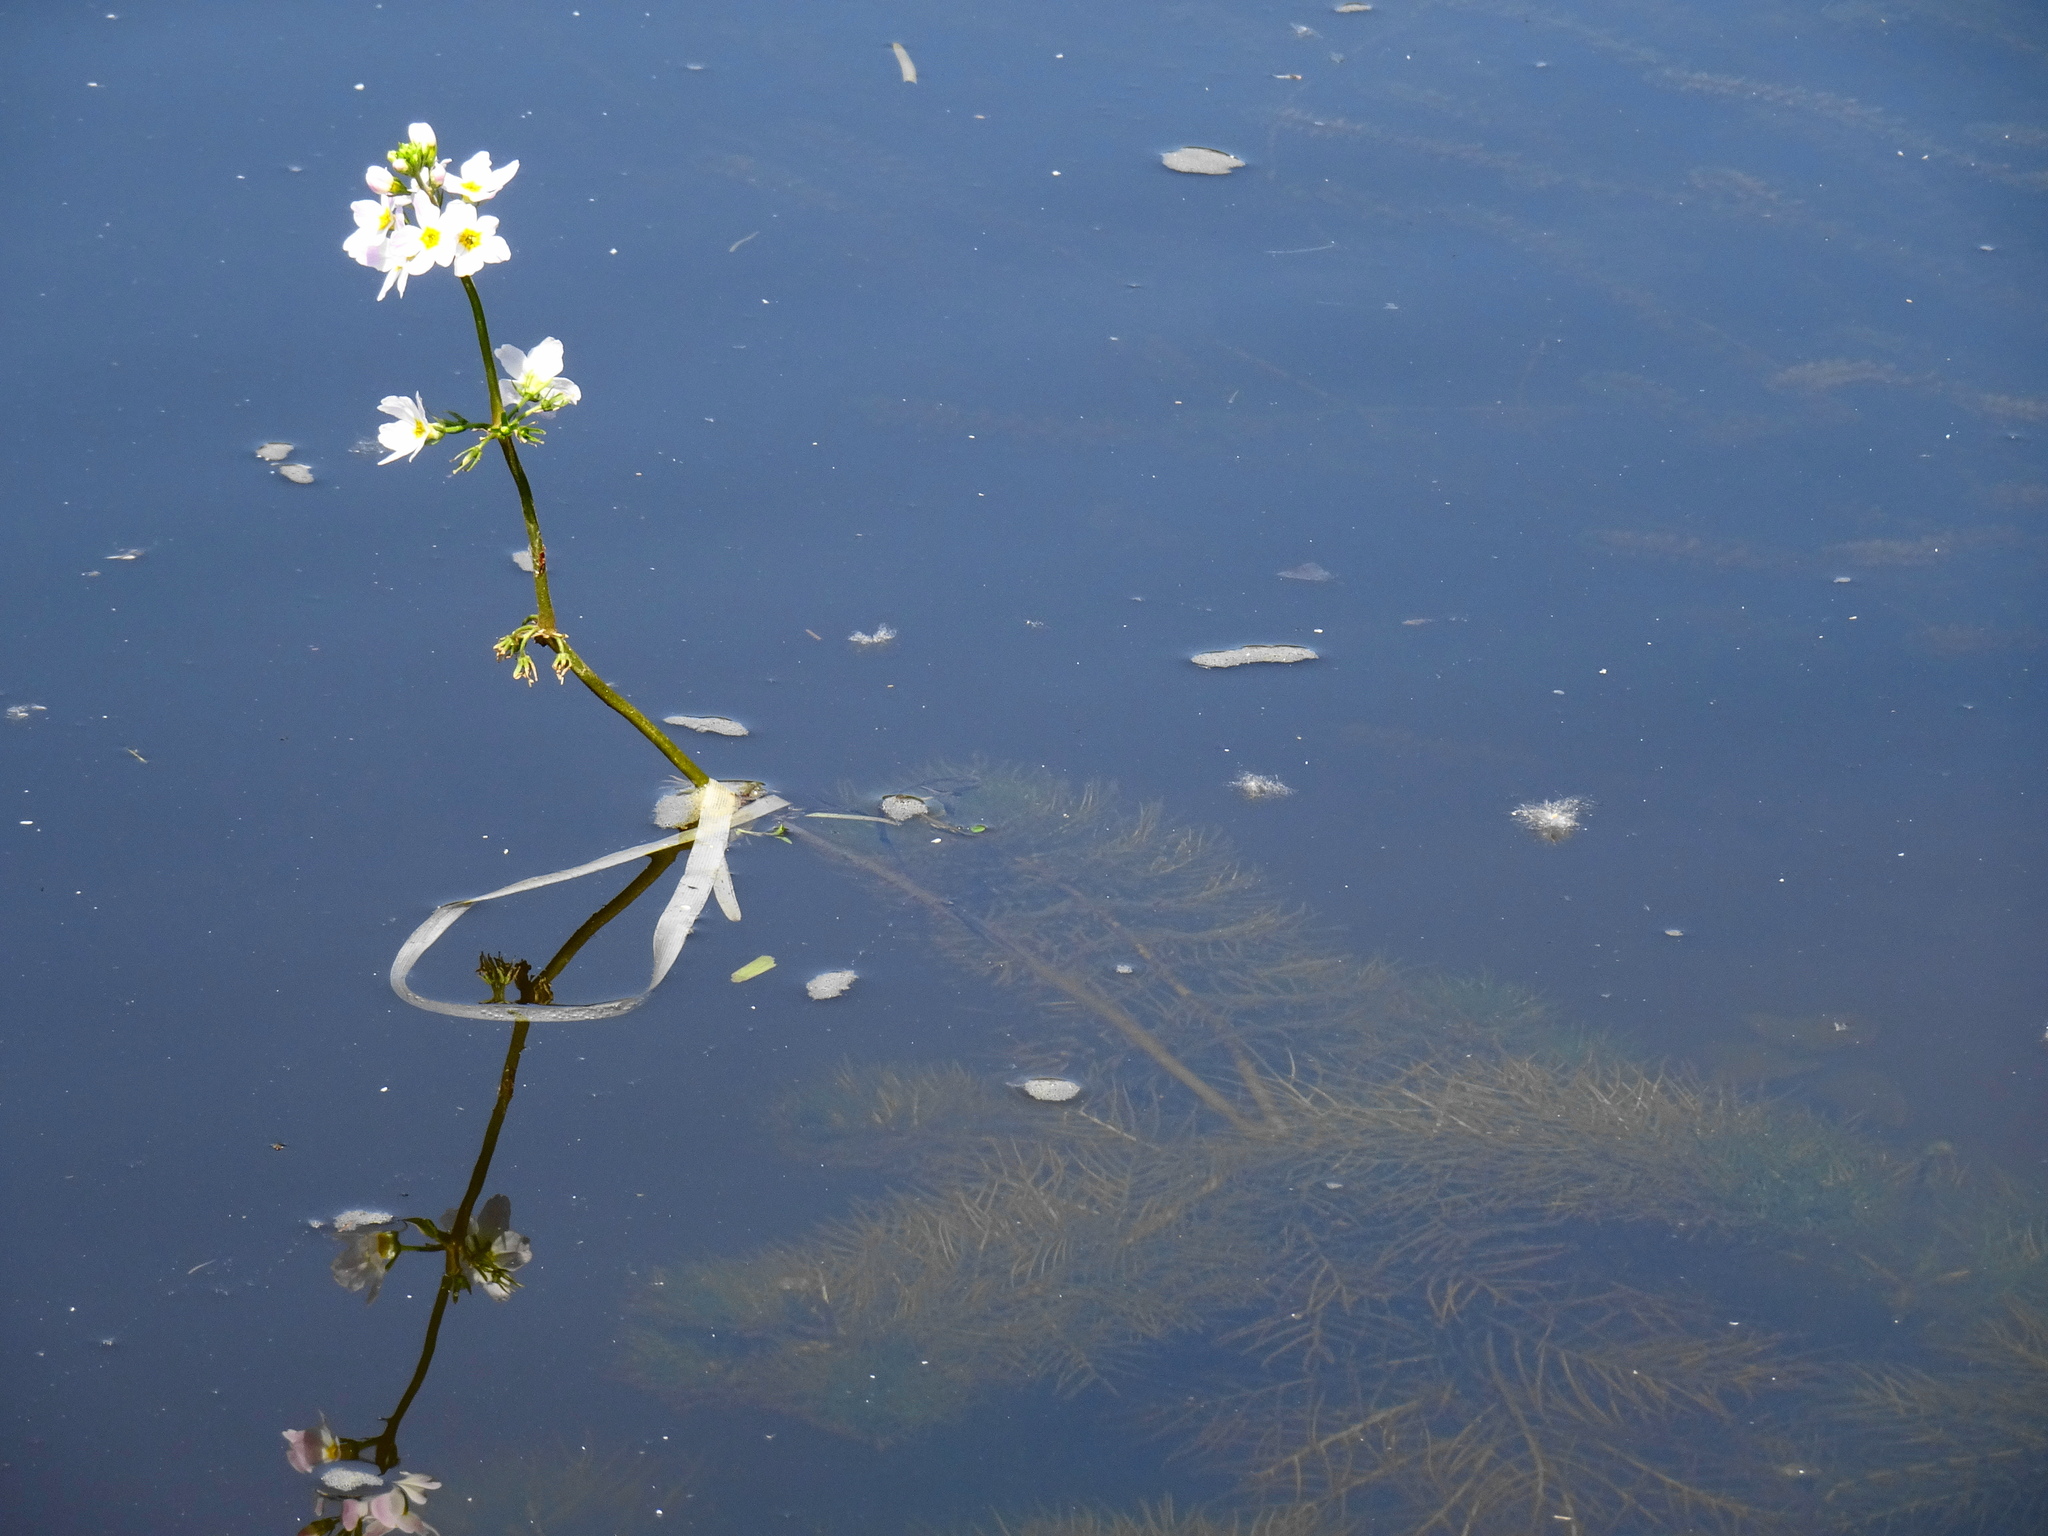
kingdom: Plantae
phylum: Tracheophyta
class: Magnoliopsida
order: Ericales
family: Primulaceae
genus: Hottonia
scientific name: Hottonia palustris
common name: Water-violet
